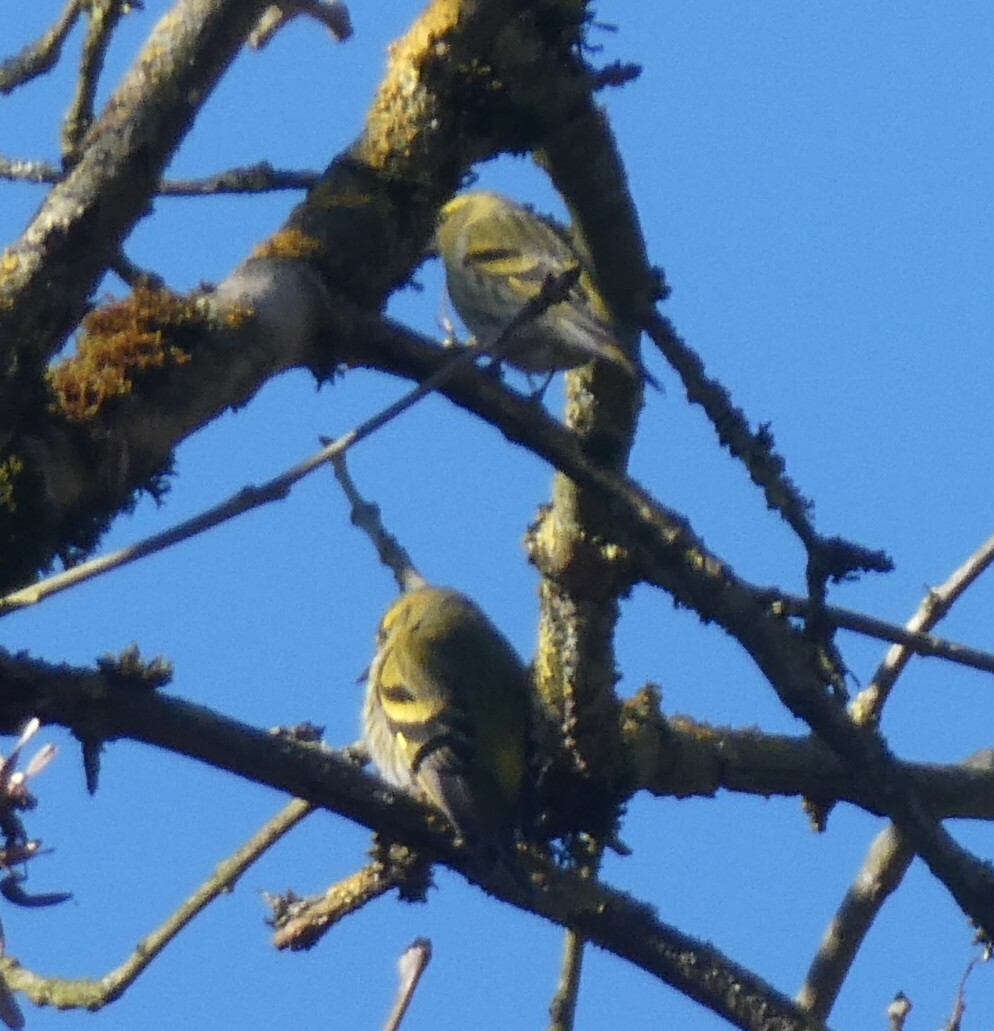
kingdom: Animalia
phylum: Chordata
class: Aves
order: Passeriformes
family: Fringillidae
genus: Spinus
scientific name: Spinus spinus
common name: Eurasian siskin
